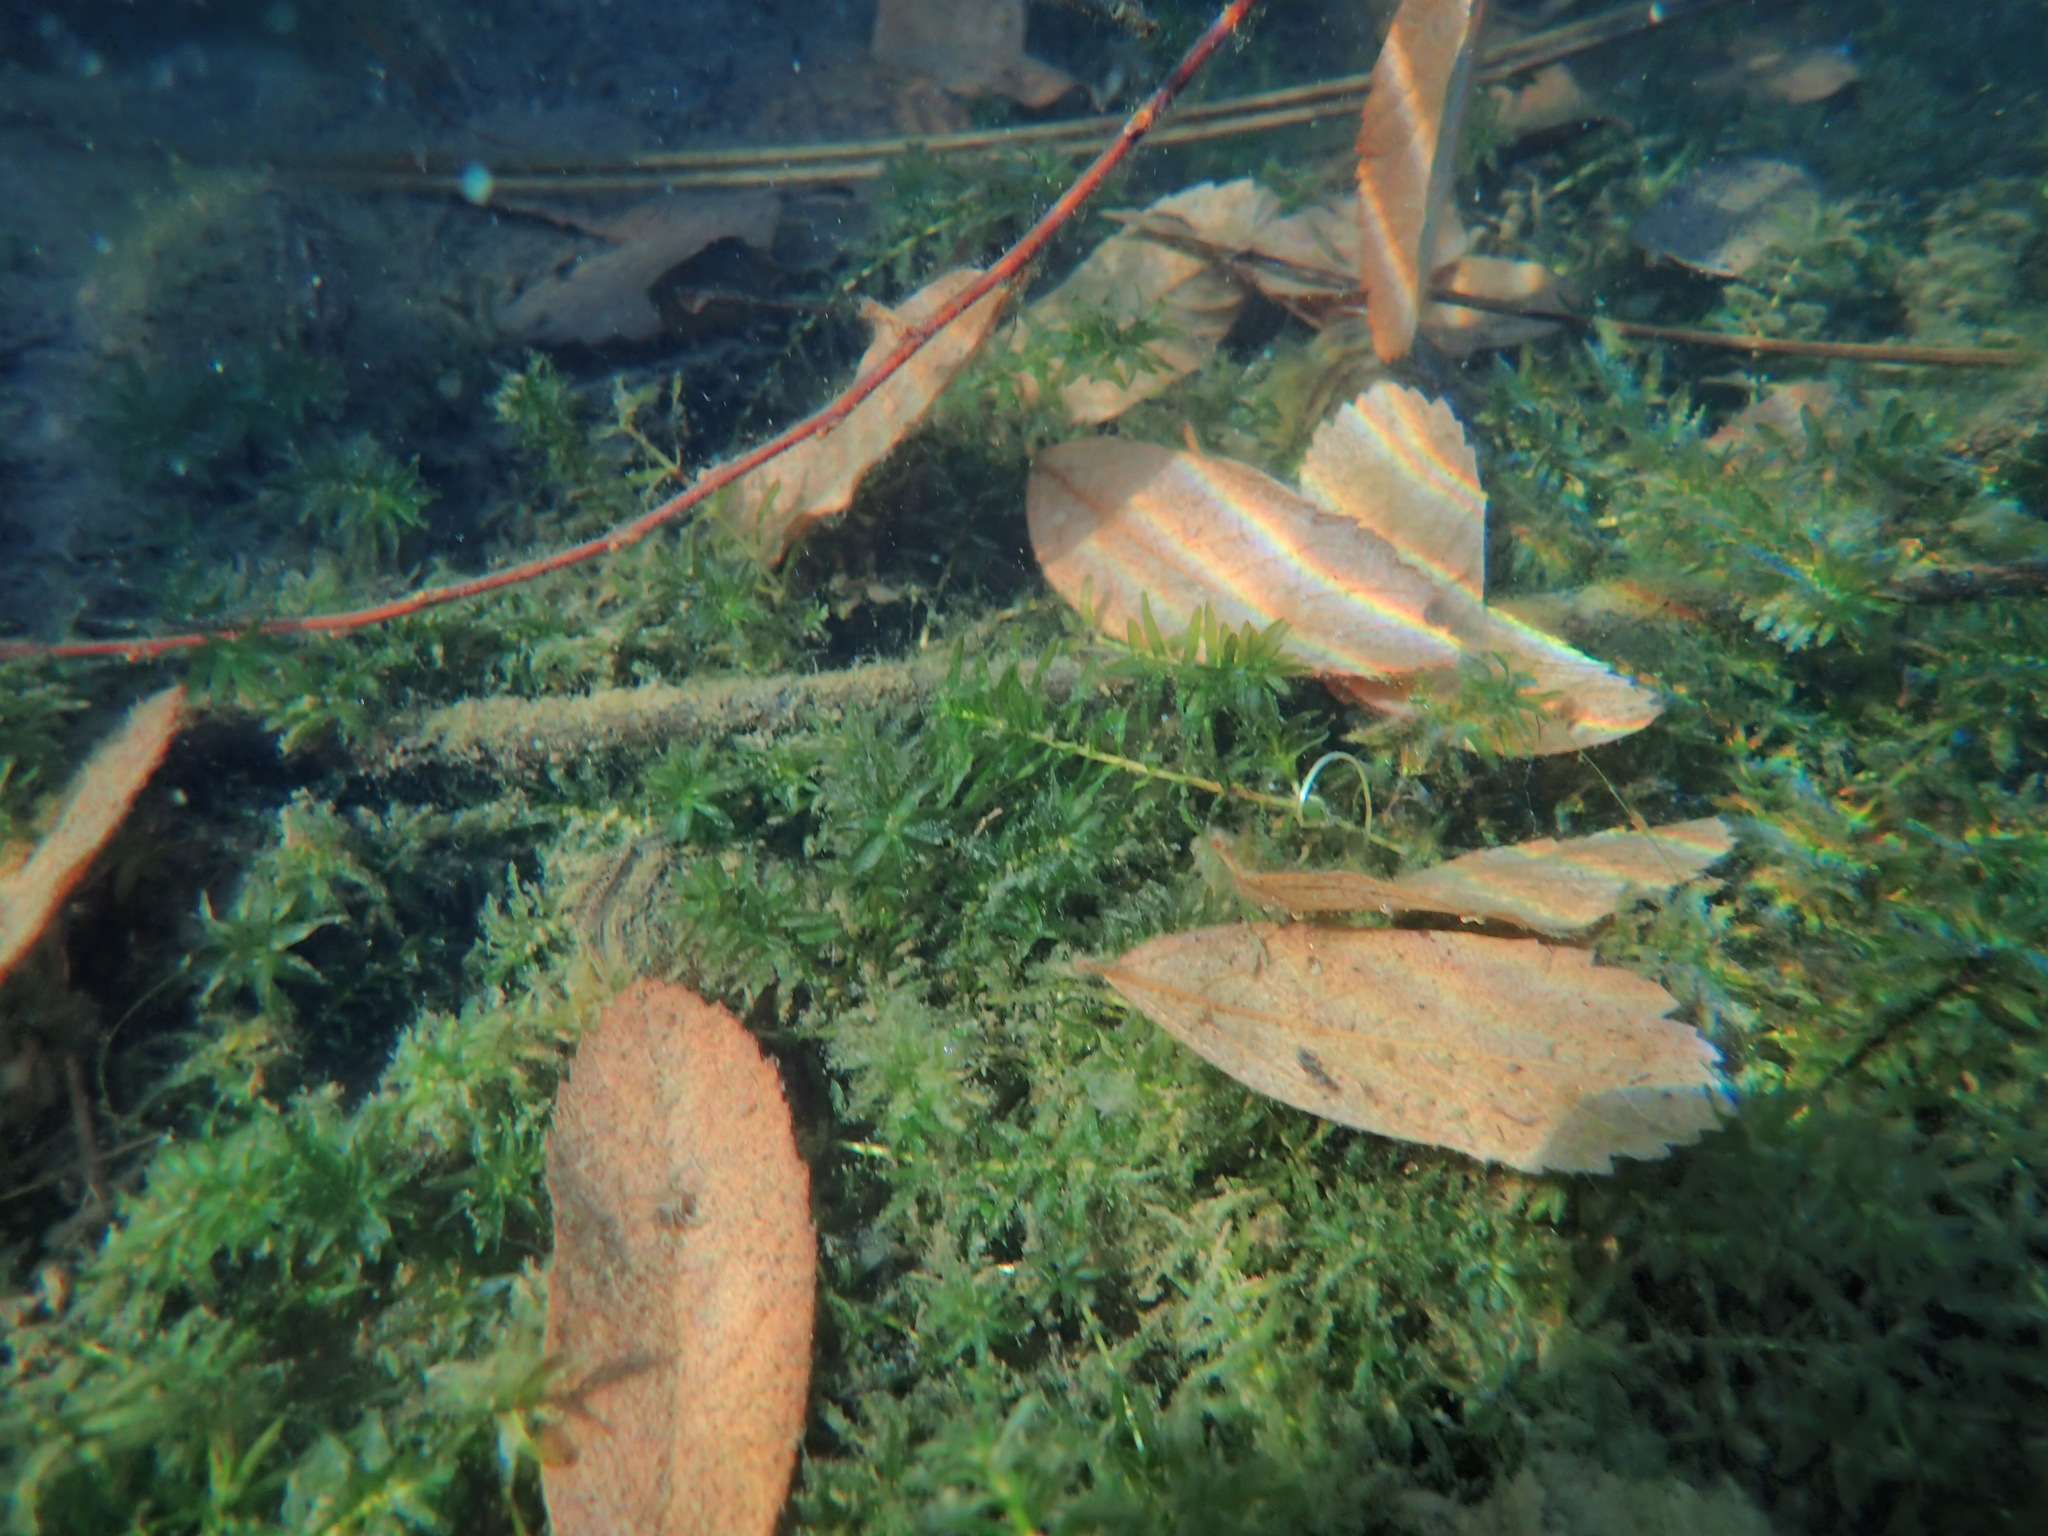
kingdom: Plantae
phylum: Tracheophyta
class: Liliopsida
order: Alismatales
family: Hydrocharitaceae
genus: Elodea
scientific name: Elodea canadensis
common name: Canadian waterweed
